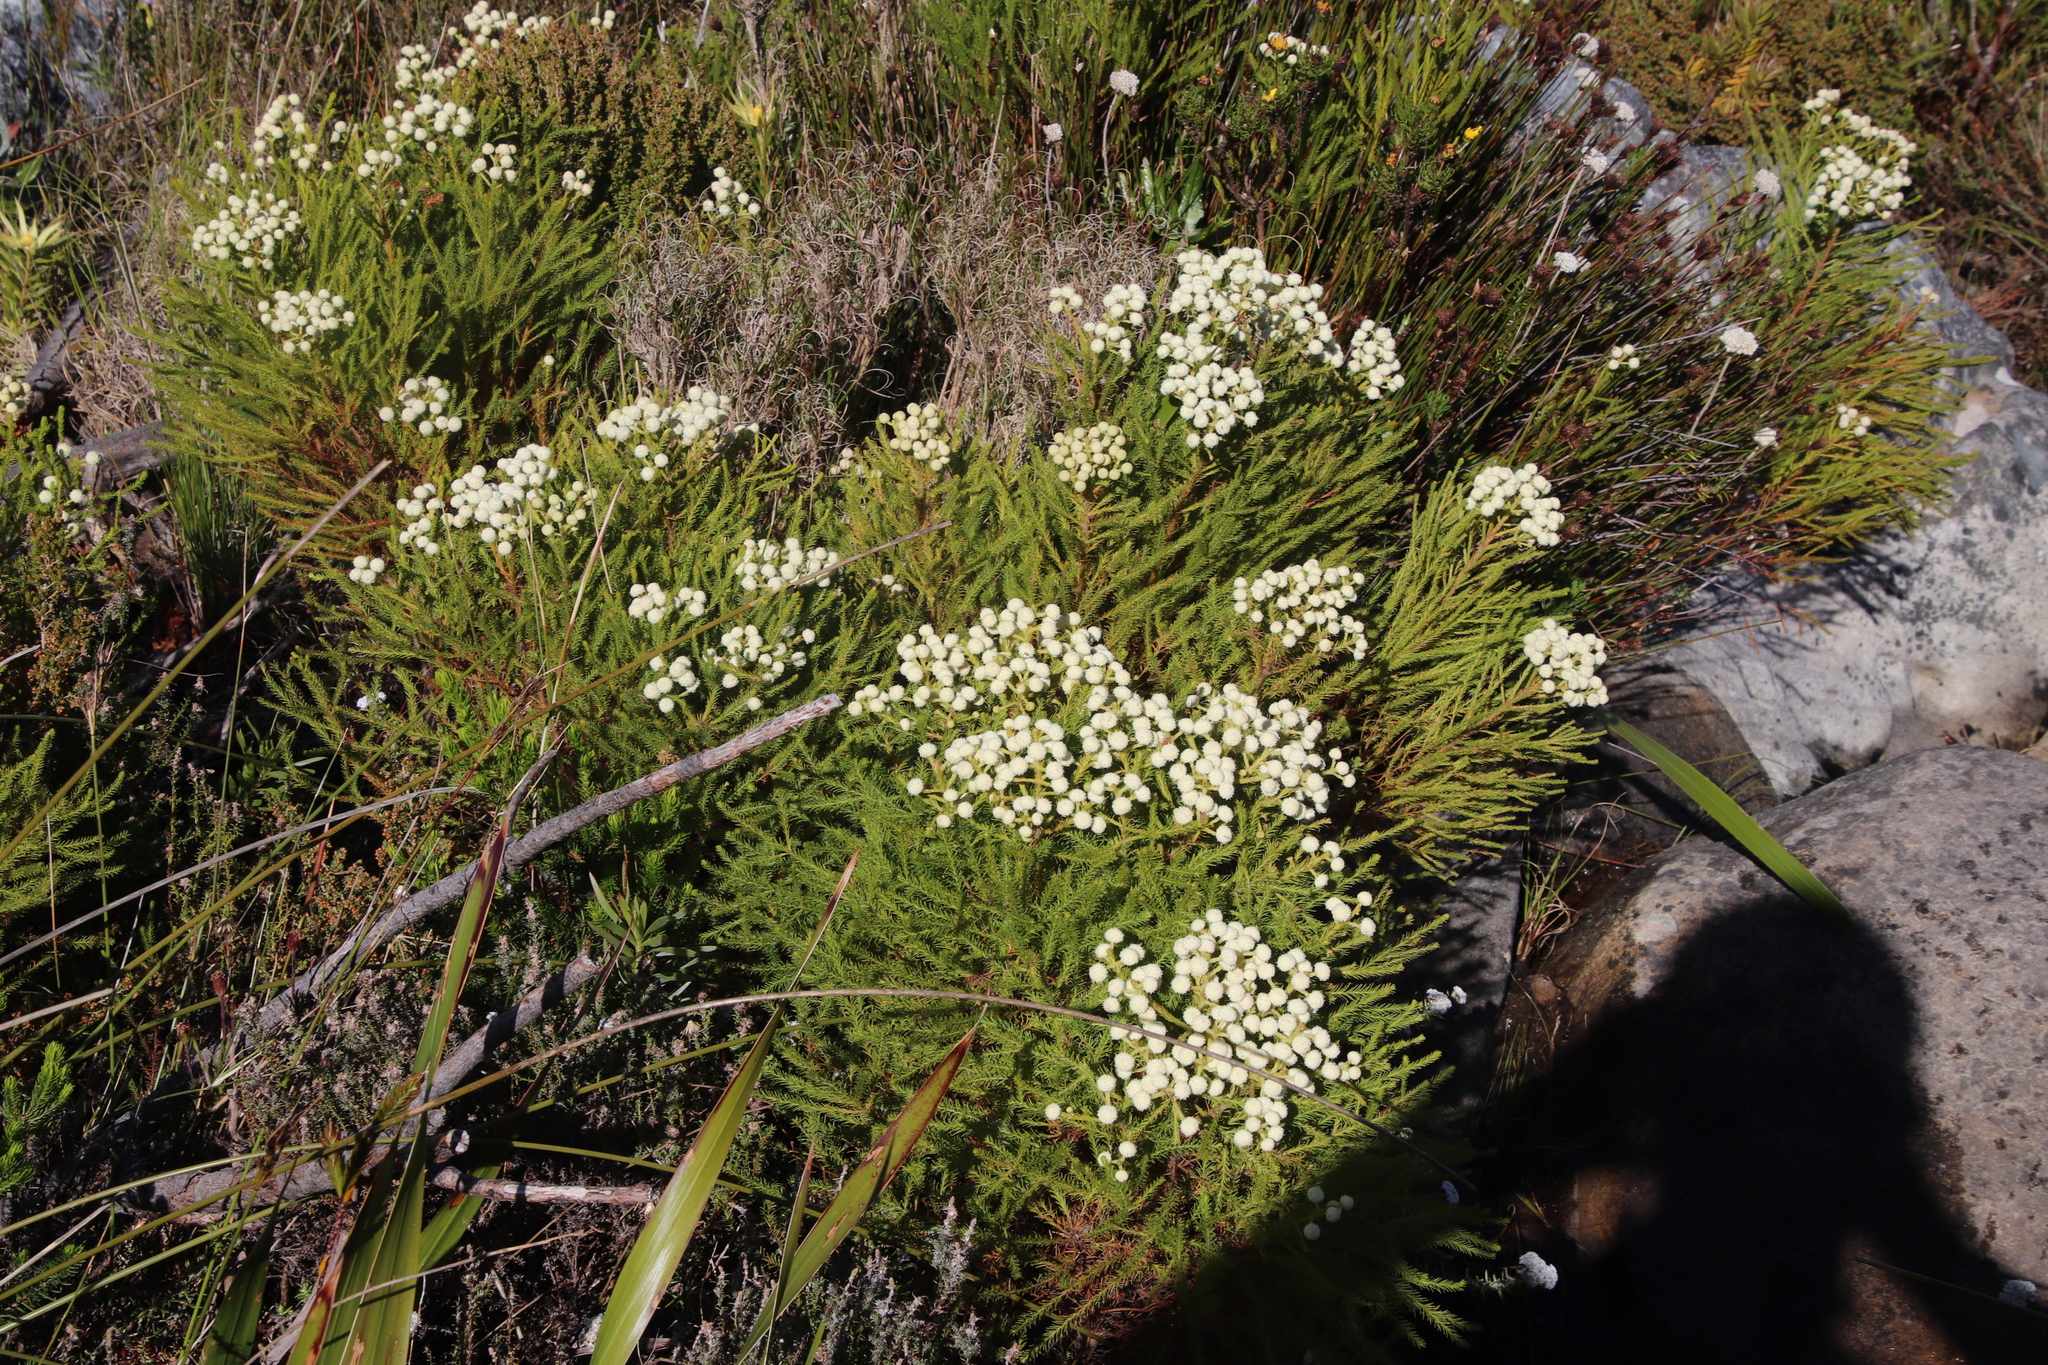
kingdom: Plantae
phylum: Tracheophyta
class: Magnoliopsida
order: Bruniales
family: Bruniaceae
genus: Berzelia
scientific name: Berzelia lanuginosa
